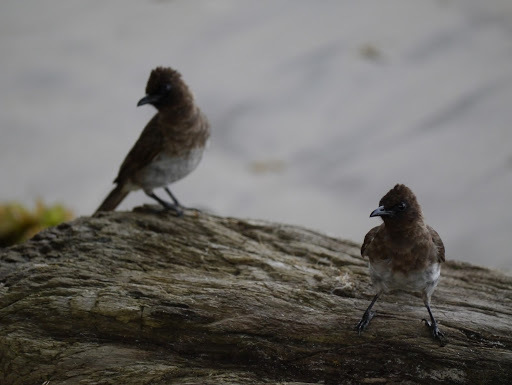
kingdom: Animalia
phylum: Chordata
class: Aves
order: Passeriformes
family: Pycnonotidae
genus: Pycnonotus
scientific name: Pycnonotus barbatus
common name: Common bulbul
